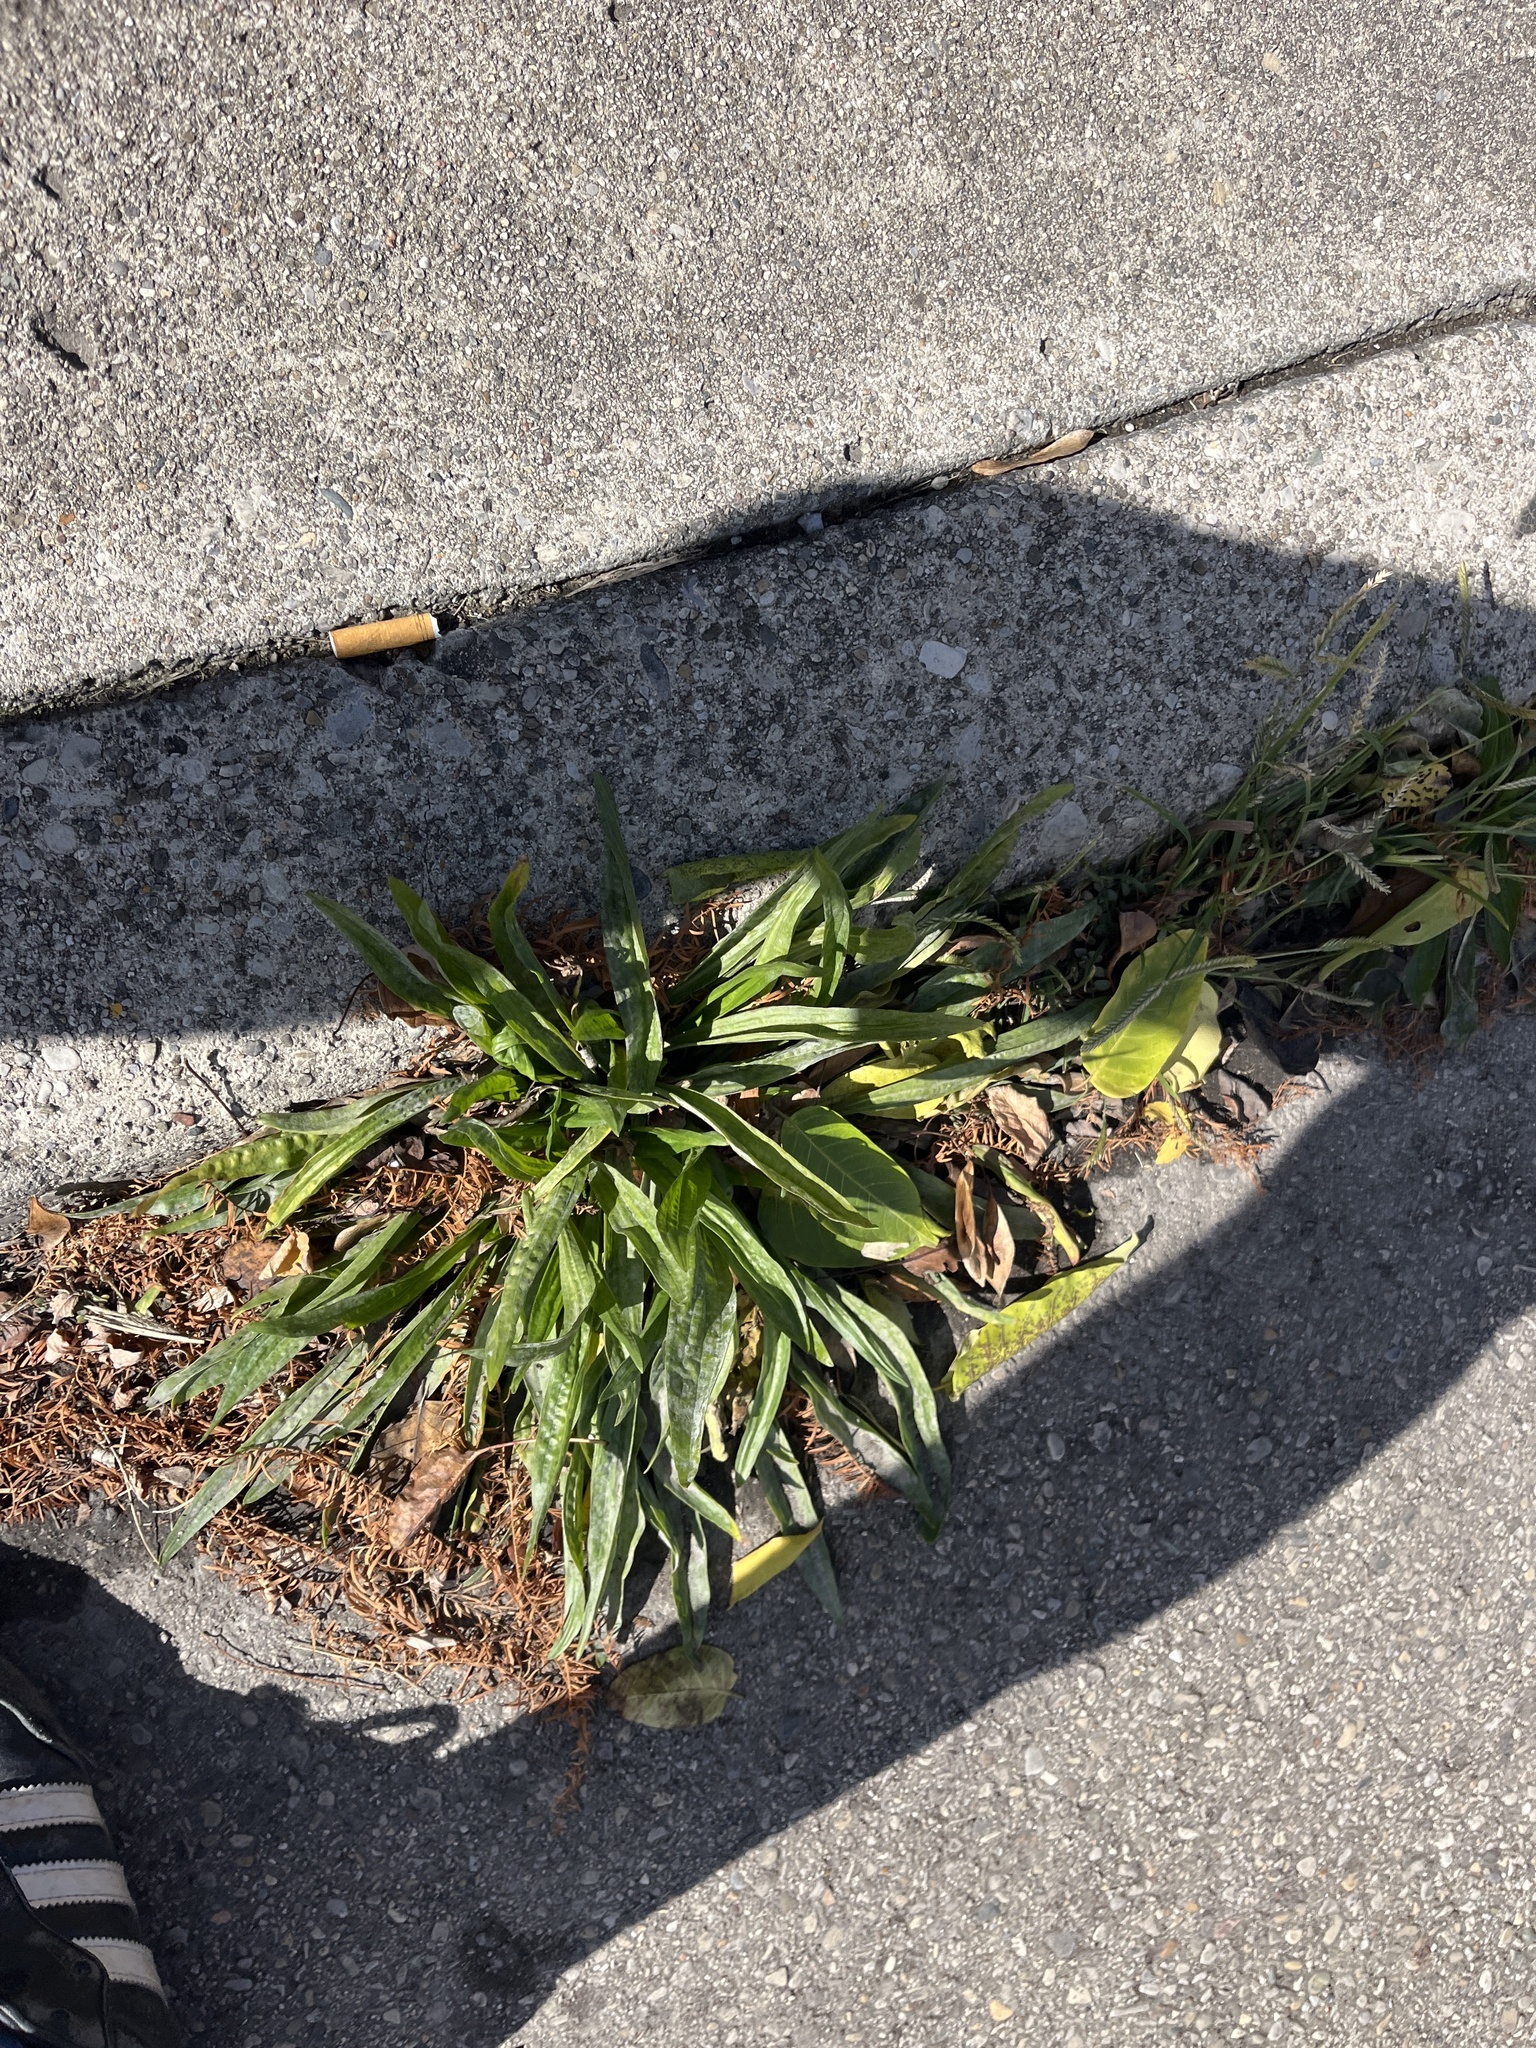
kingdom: Plantae
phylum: Tracheophyta
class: Magnoliopsida
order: Lamiales
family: Plantaginaceae
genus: Plantago
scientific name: Plantago lanceolata
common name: Ribwort plantain
